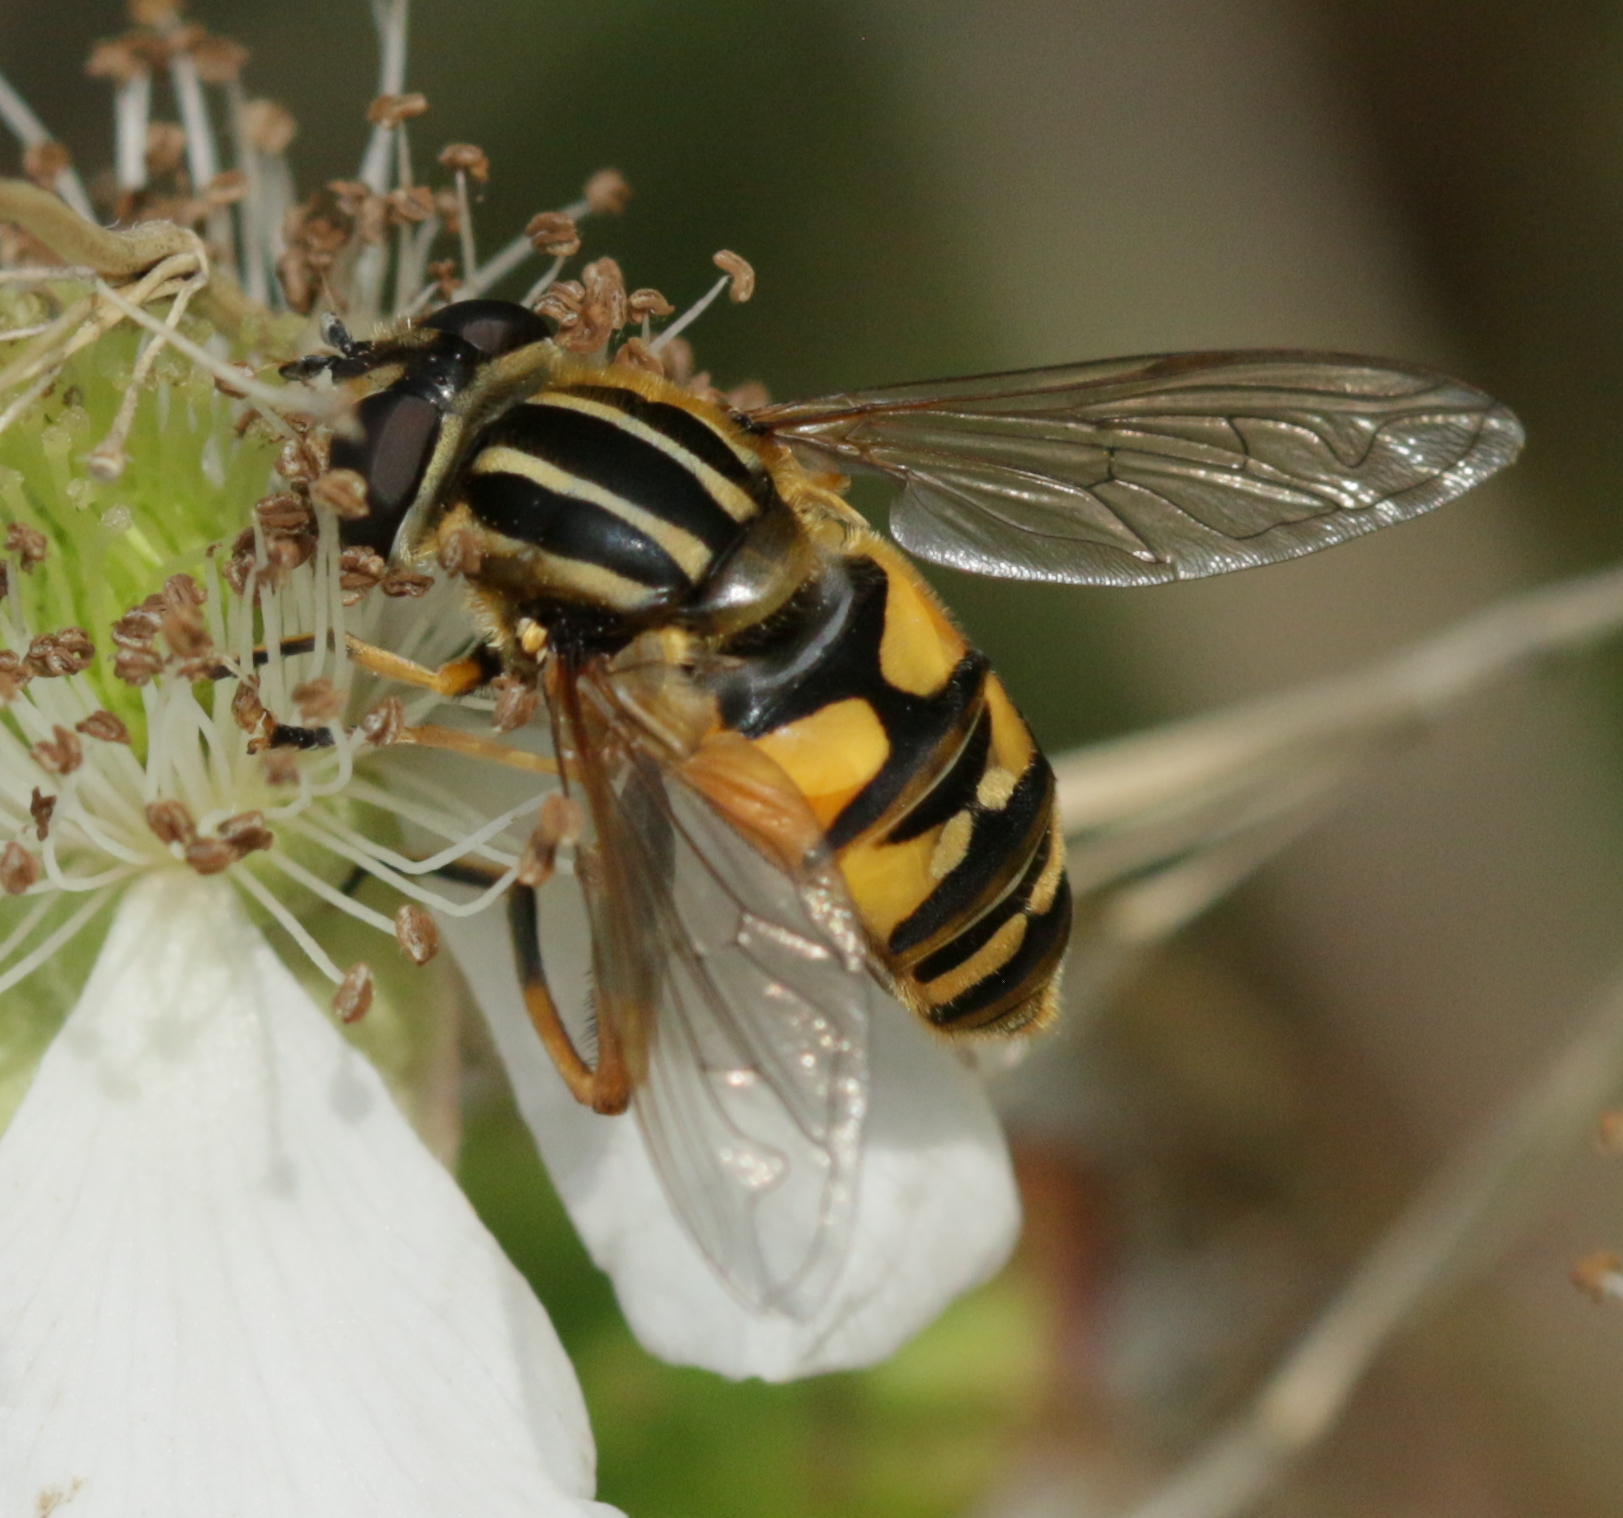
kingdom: Animalia
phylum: Arthropoda
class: Insecta
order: Diptera
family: Syrphidae
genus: Helophilus
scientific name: Helophilus pendulus
